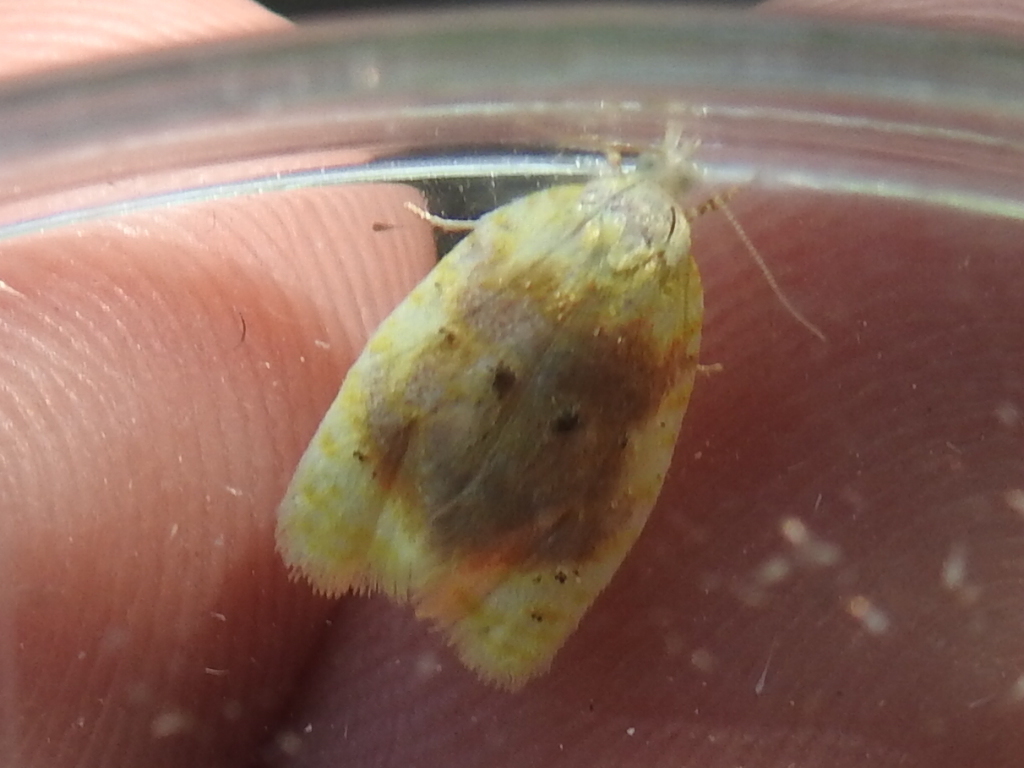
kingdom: Animalia
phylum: Arthropoda
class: Insecta
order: Lepidoptera
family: Tortricidae
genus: Acleris
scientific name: Acleris semipurpurana
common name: Oak leaftier moth
